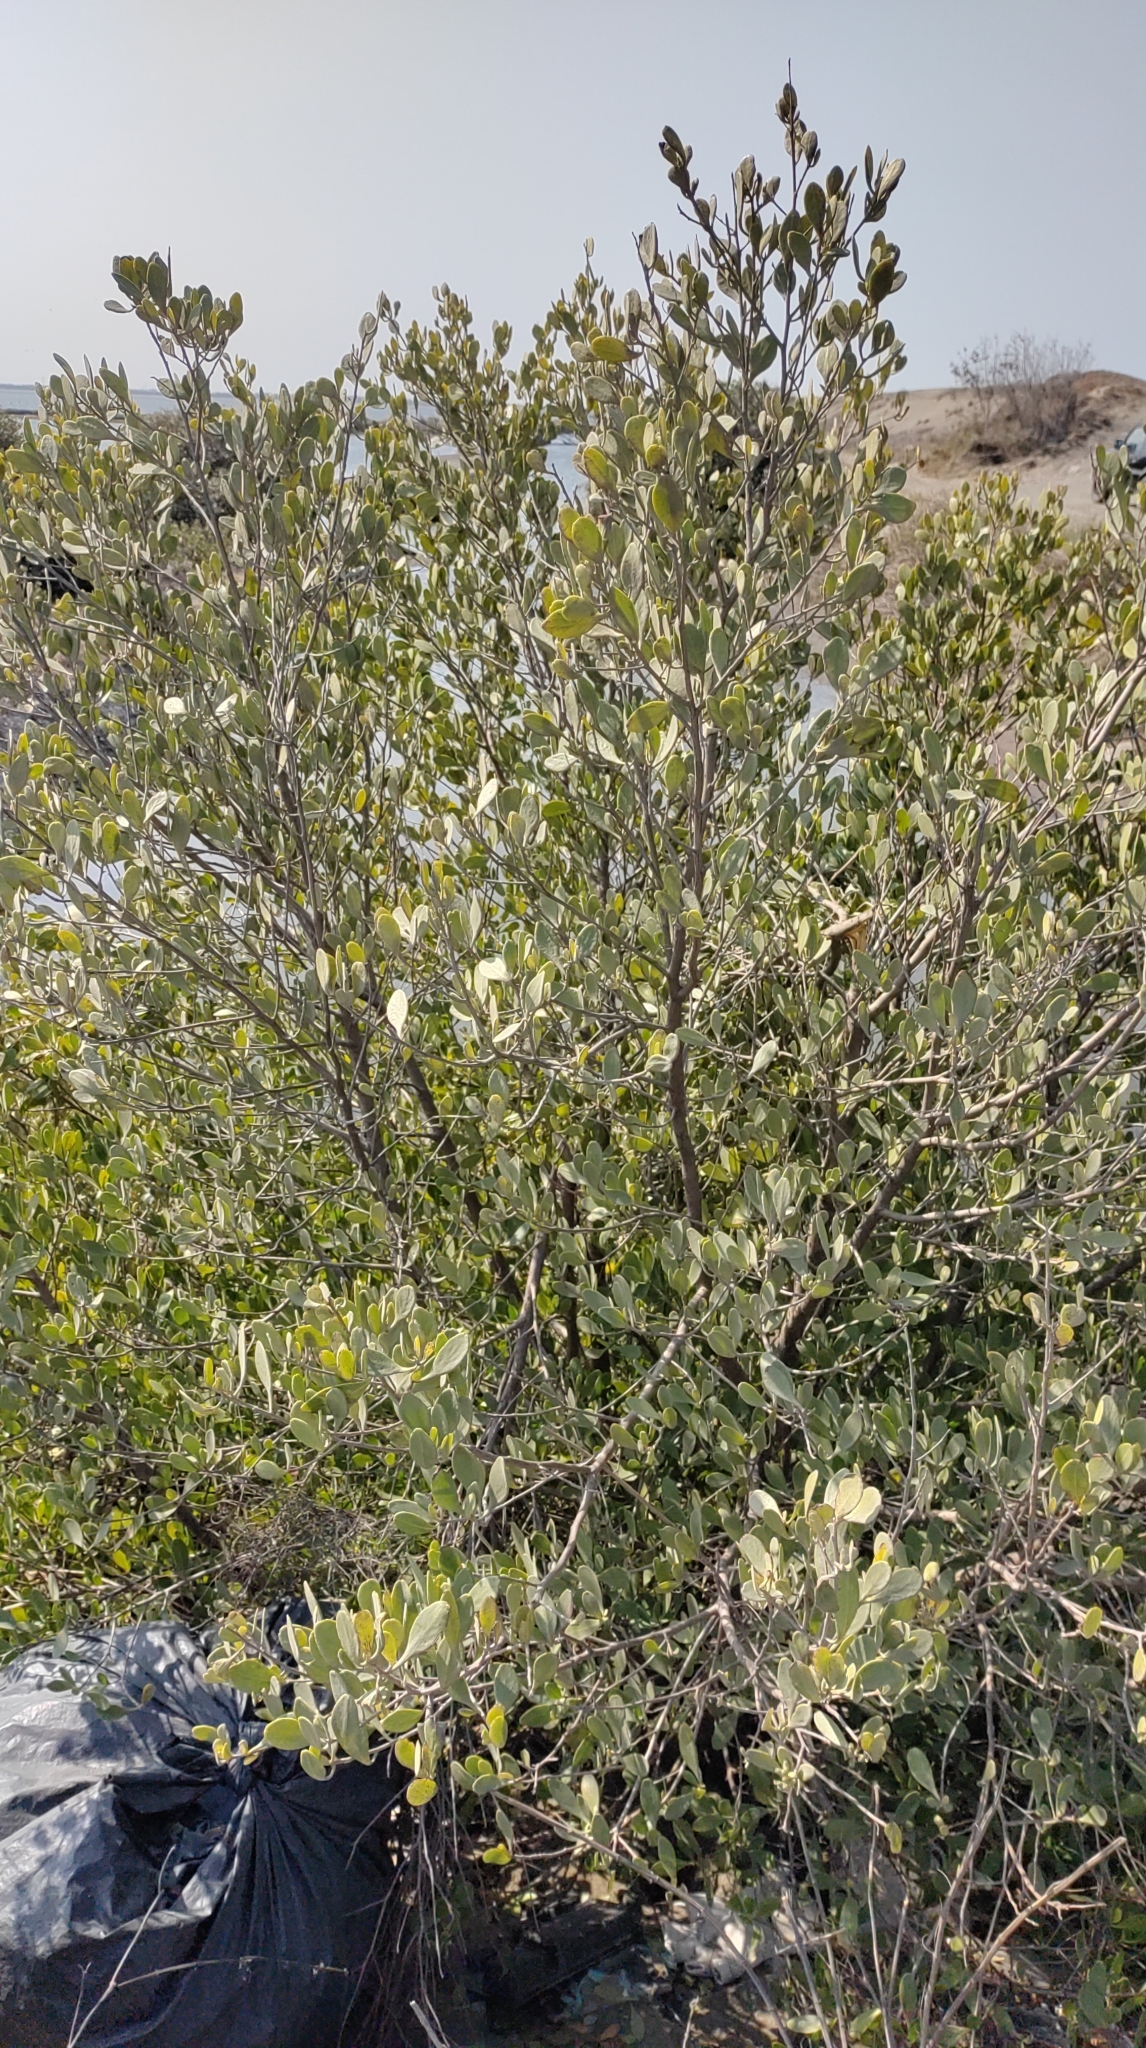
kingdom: Plantae
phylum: Tracheophyta
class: Magnoliopsida
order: Myrtales
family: Combretaceae
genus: Lumnitzera
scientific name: Lumnitzera racemosa
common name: White-flowered black mangrove
